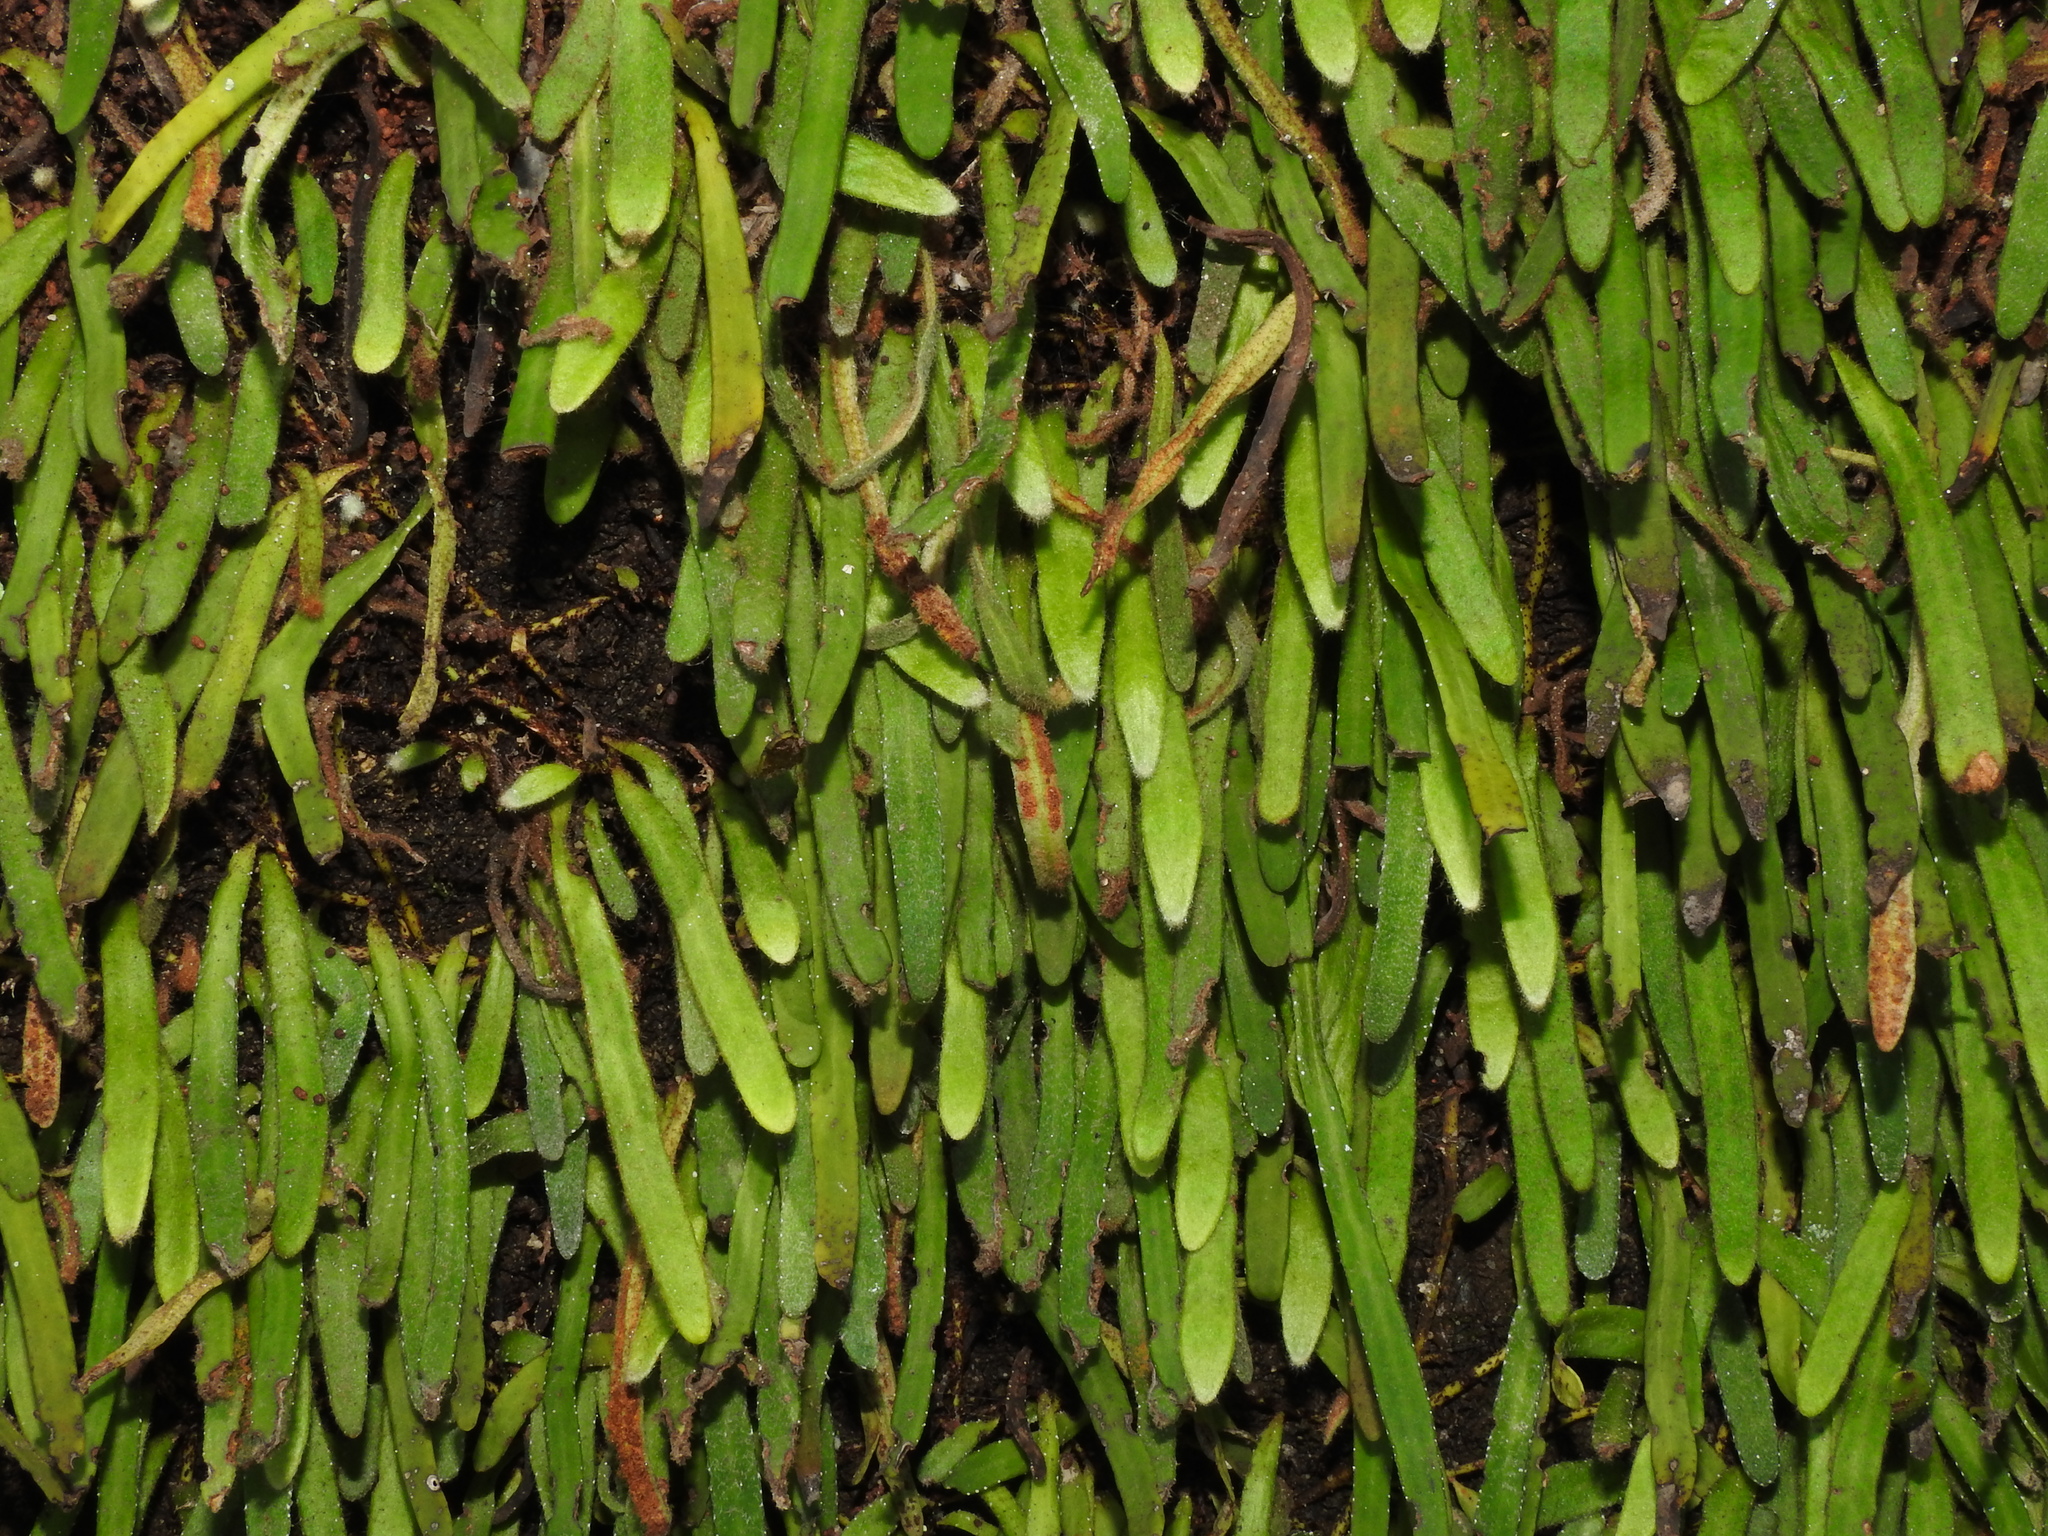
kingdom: Plantae
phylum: Tracheophyta
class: Polypodiopsida
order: Polypodiales
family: Polypodiaceae
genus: Pyrrosia
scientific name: Pyrrosia linearifolia
